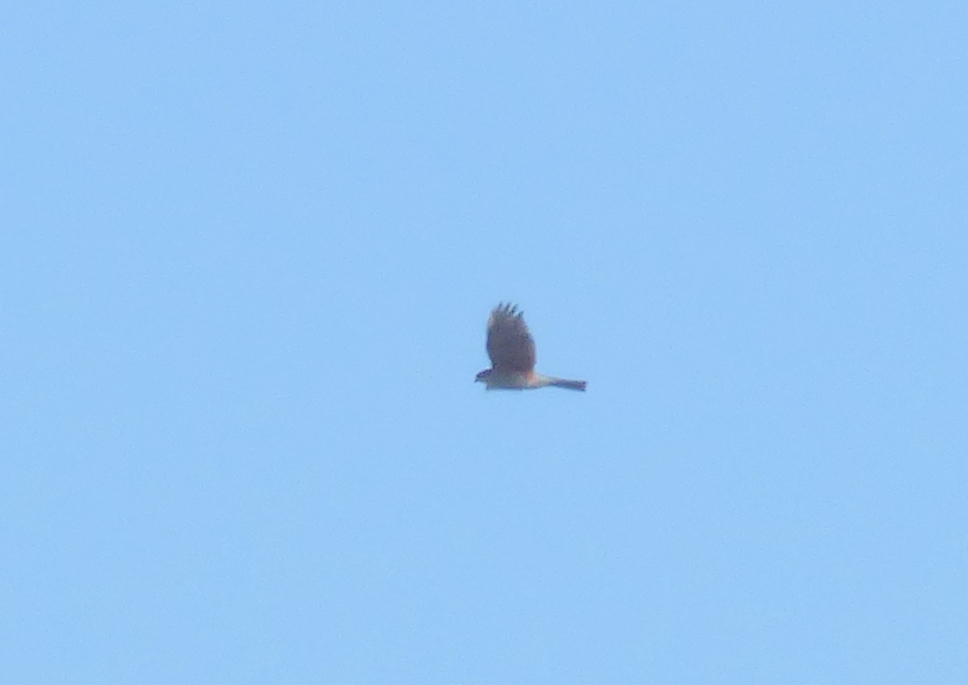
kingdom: Animalia
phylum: Chordata
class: Aves
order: Accipitriformes
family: Accipitridae
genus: Accipiter
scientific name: Accipiter striatus
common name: Sharp-shinned hawk
